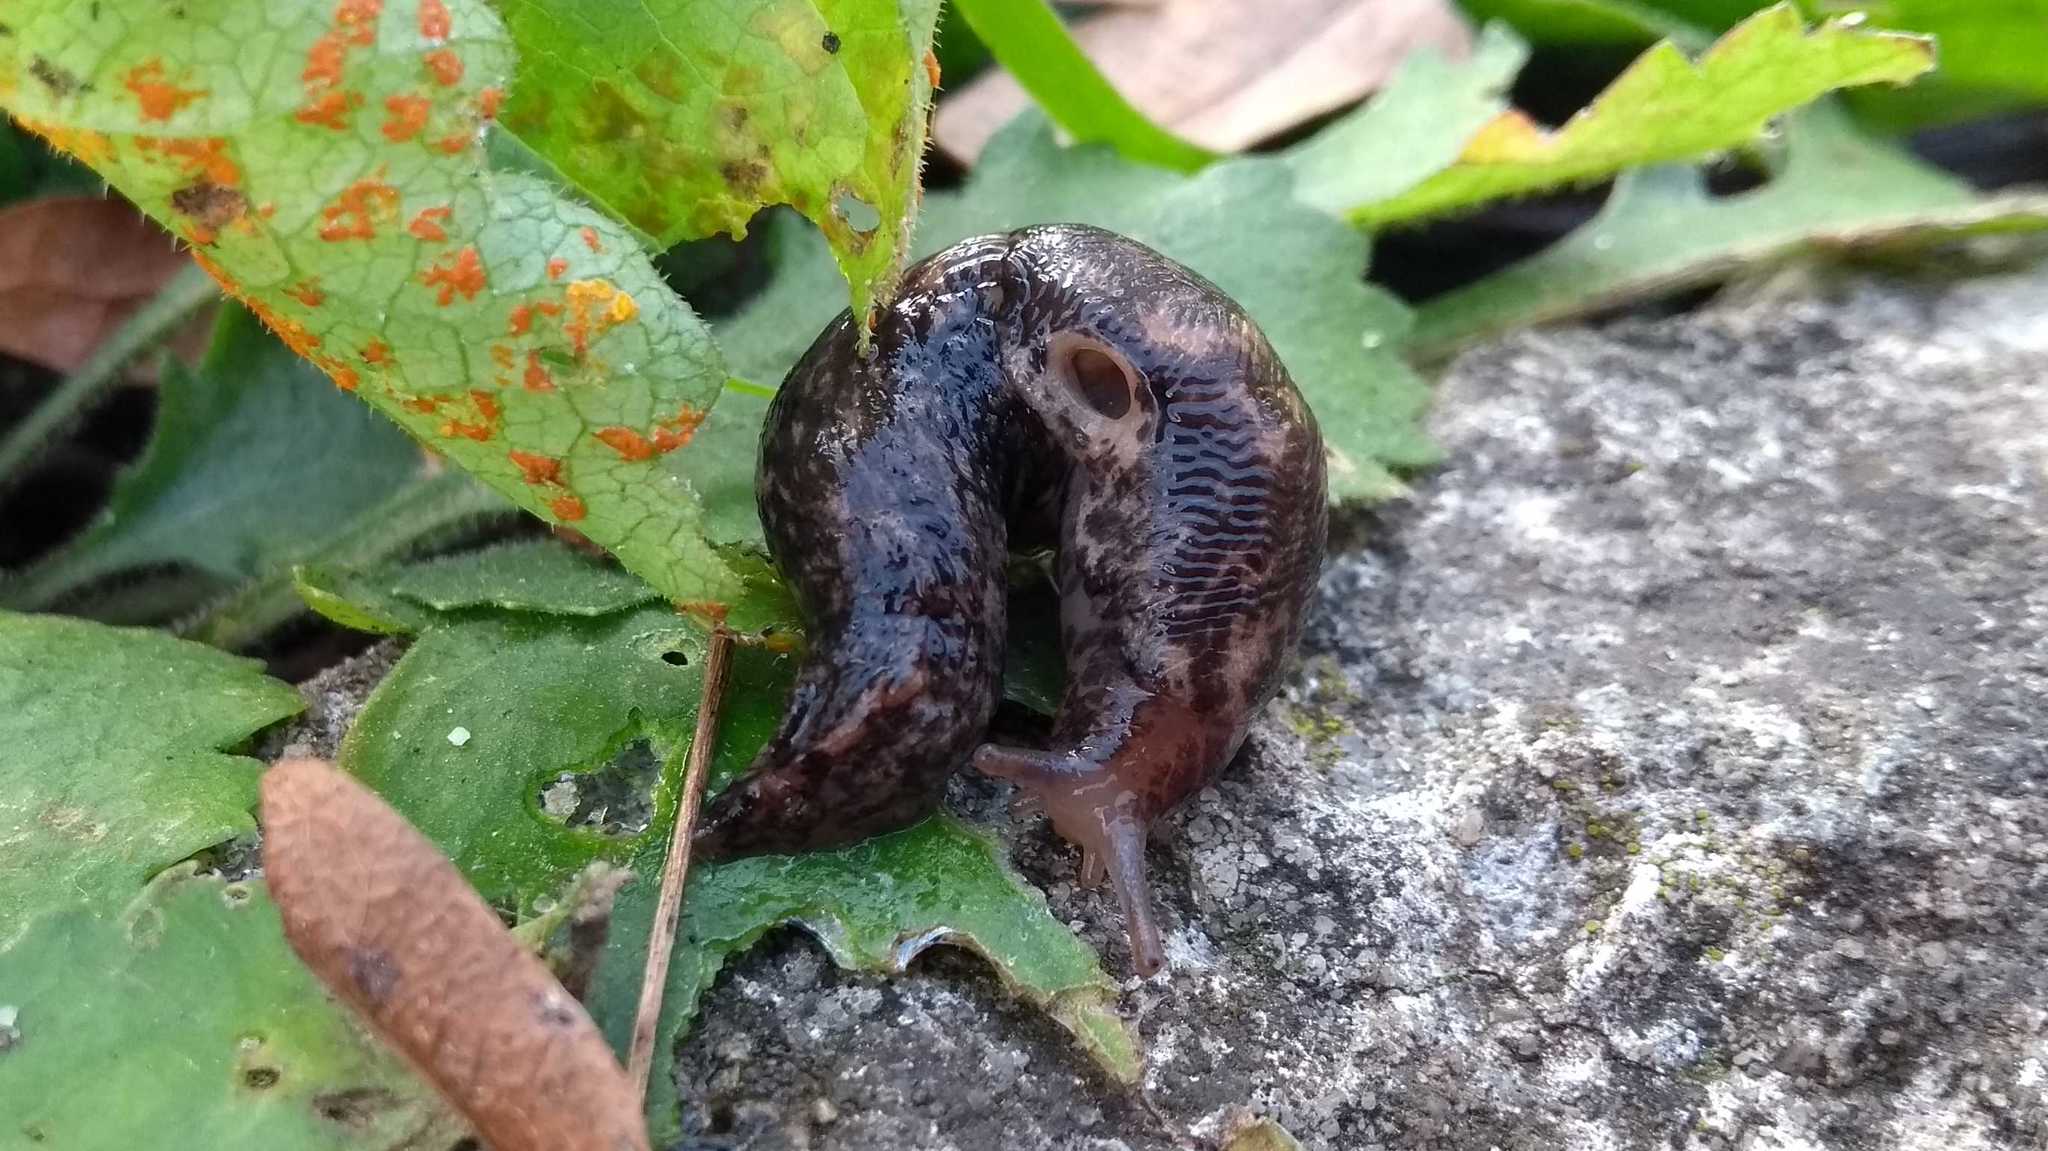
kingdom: Animalia
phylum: Mollusca
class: Gastropoda
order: Stylommatophora
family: Limacidae
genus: Limax
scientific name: Limax maximus
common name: Great grey slug
